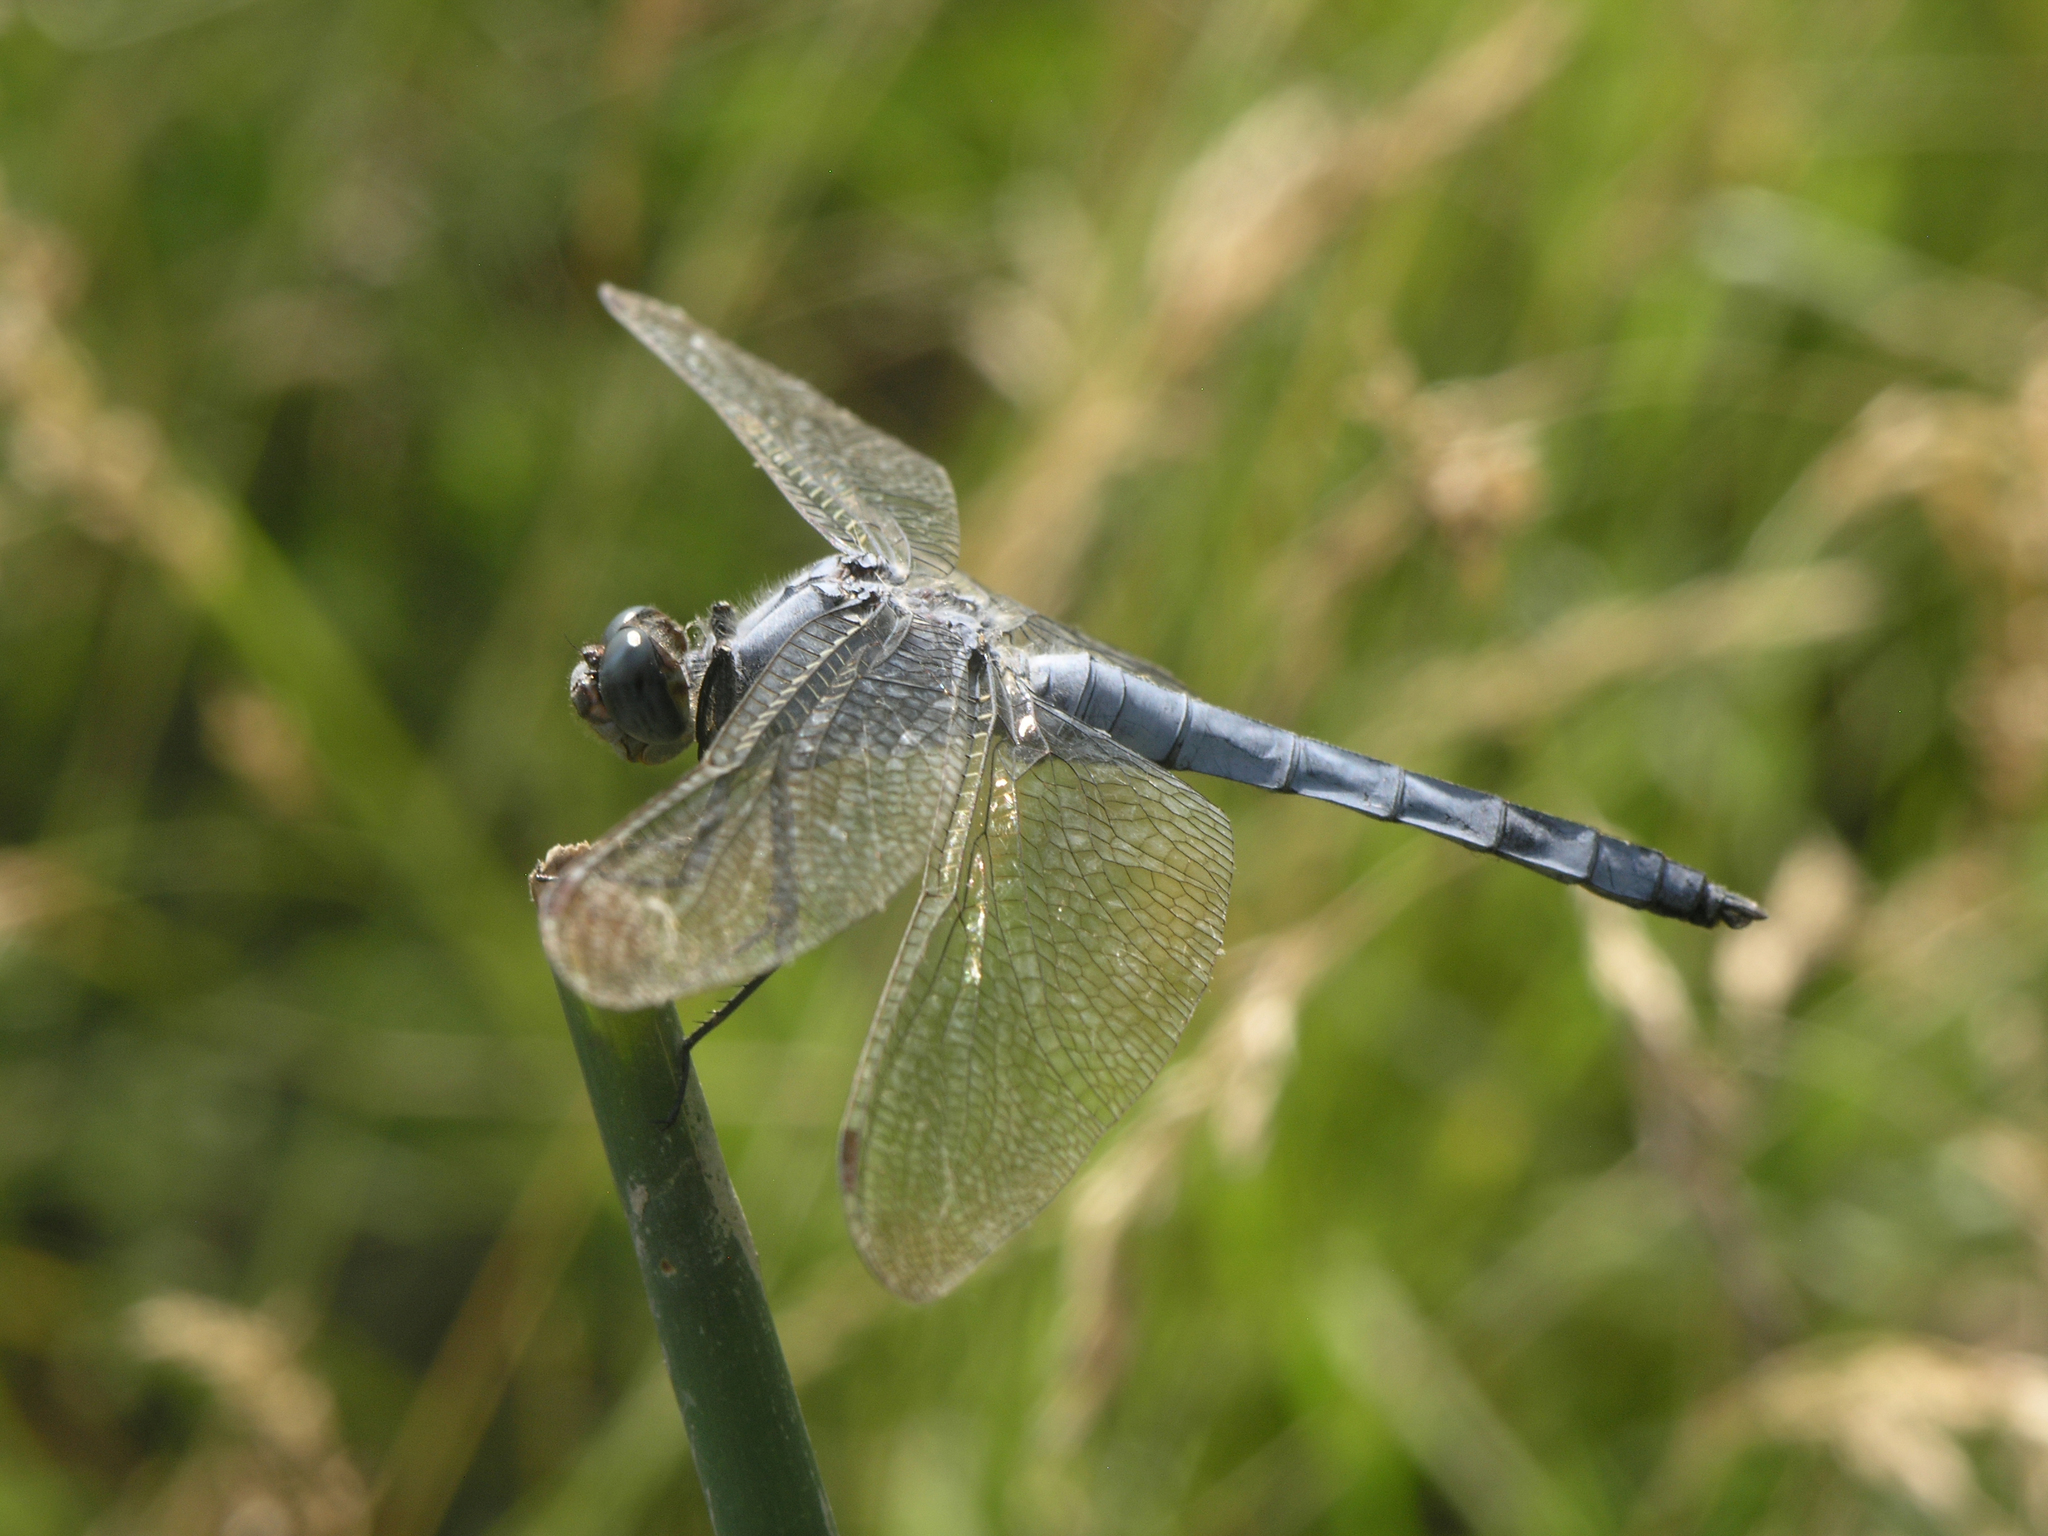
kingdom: Animalia
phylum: Arthropoda
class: Insecta
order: Odonata
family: Libellulidae
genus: Orthetrum
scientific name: Orthetrum brunneum
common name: Southern skimmer
